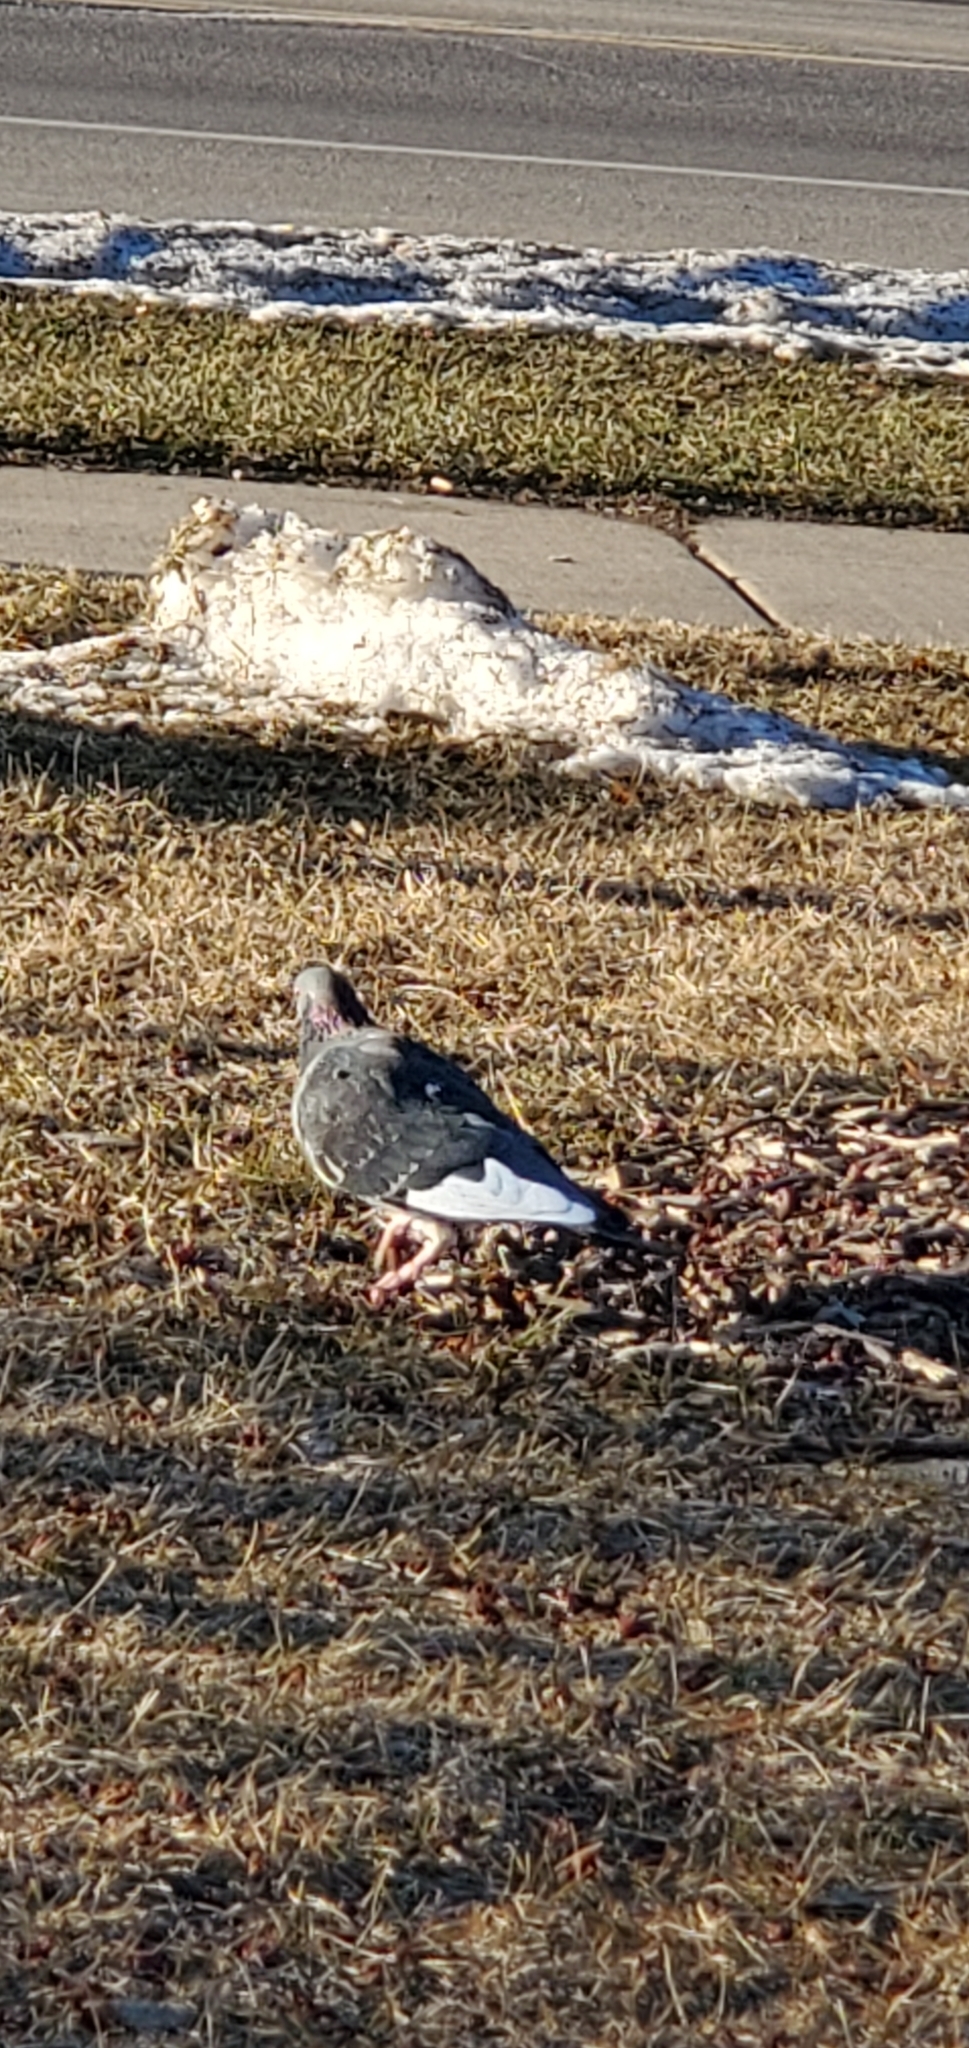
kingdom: Animalia
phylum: Chordata
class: Aves
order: Columbiformes
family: Columbidae
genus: Columba
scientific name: Columba livia
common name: Rock pigeon
